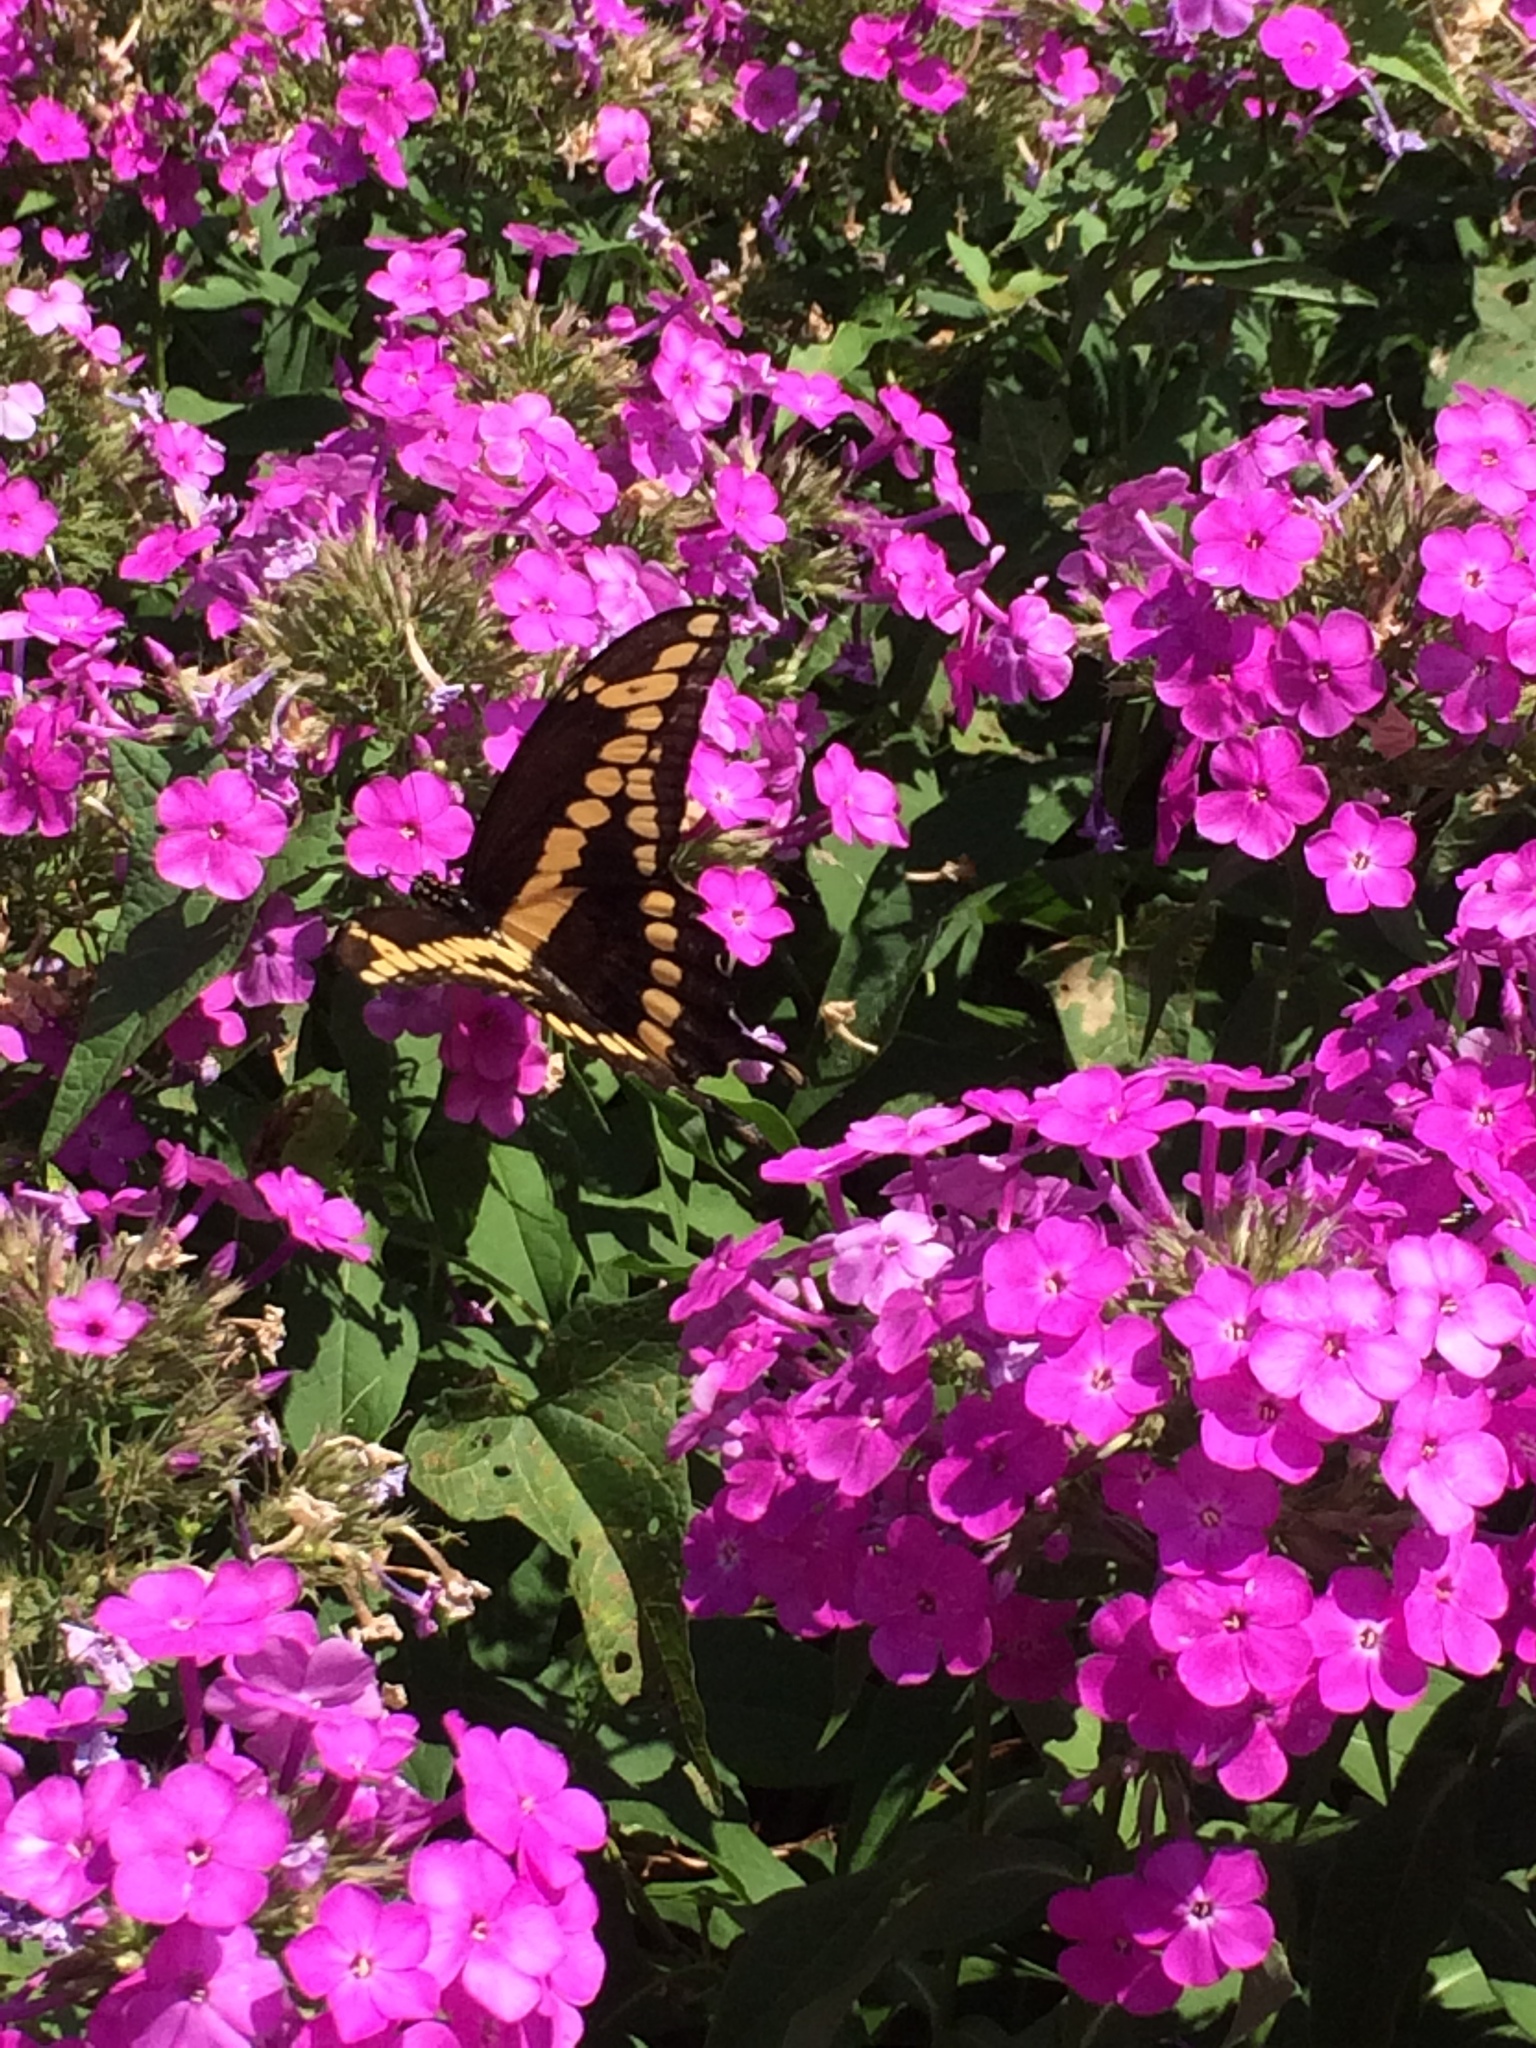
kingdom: Animalia
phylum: Arthropoda
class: Insecta
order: Lepidoptera
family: Papilionidae
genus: Papilio
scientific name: Papilio cresphontes
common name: Giant swallowtail
